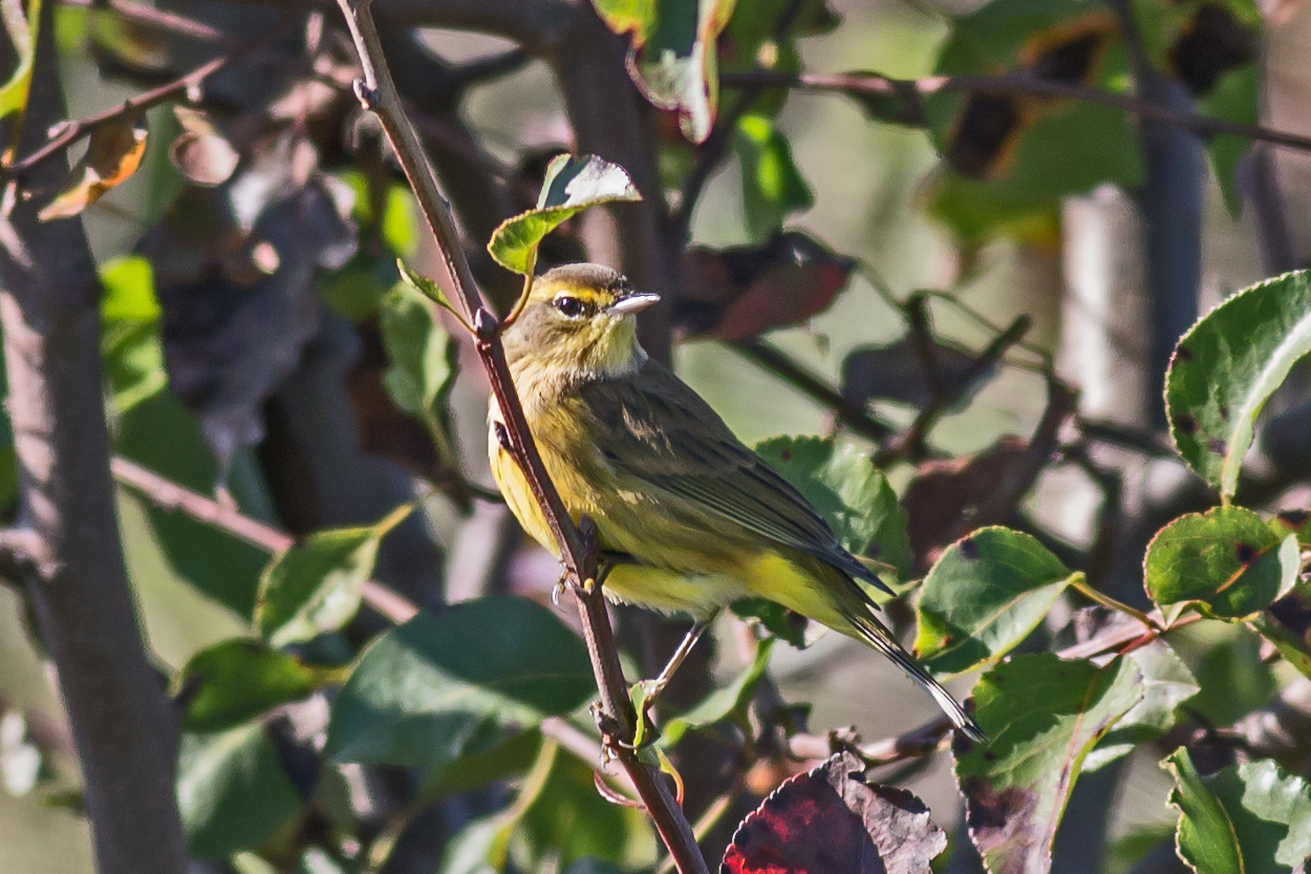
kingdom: Animalia
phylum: Chordata
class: Aves
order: Passeriformes
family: Parulidae
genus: Setophaga
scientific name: Setophaga palmarum
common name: Palm warbler
